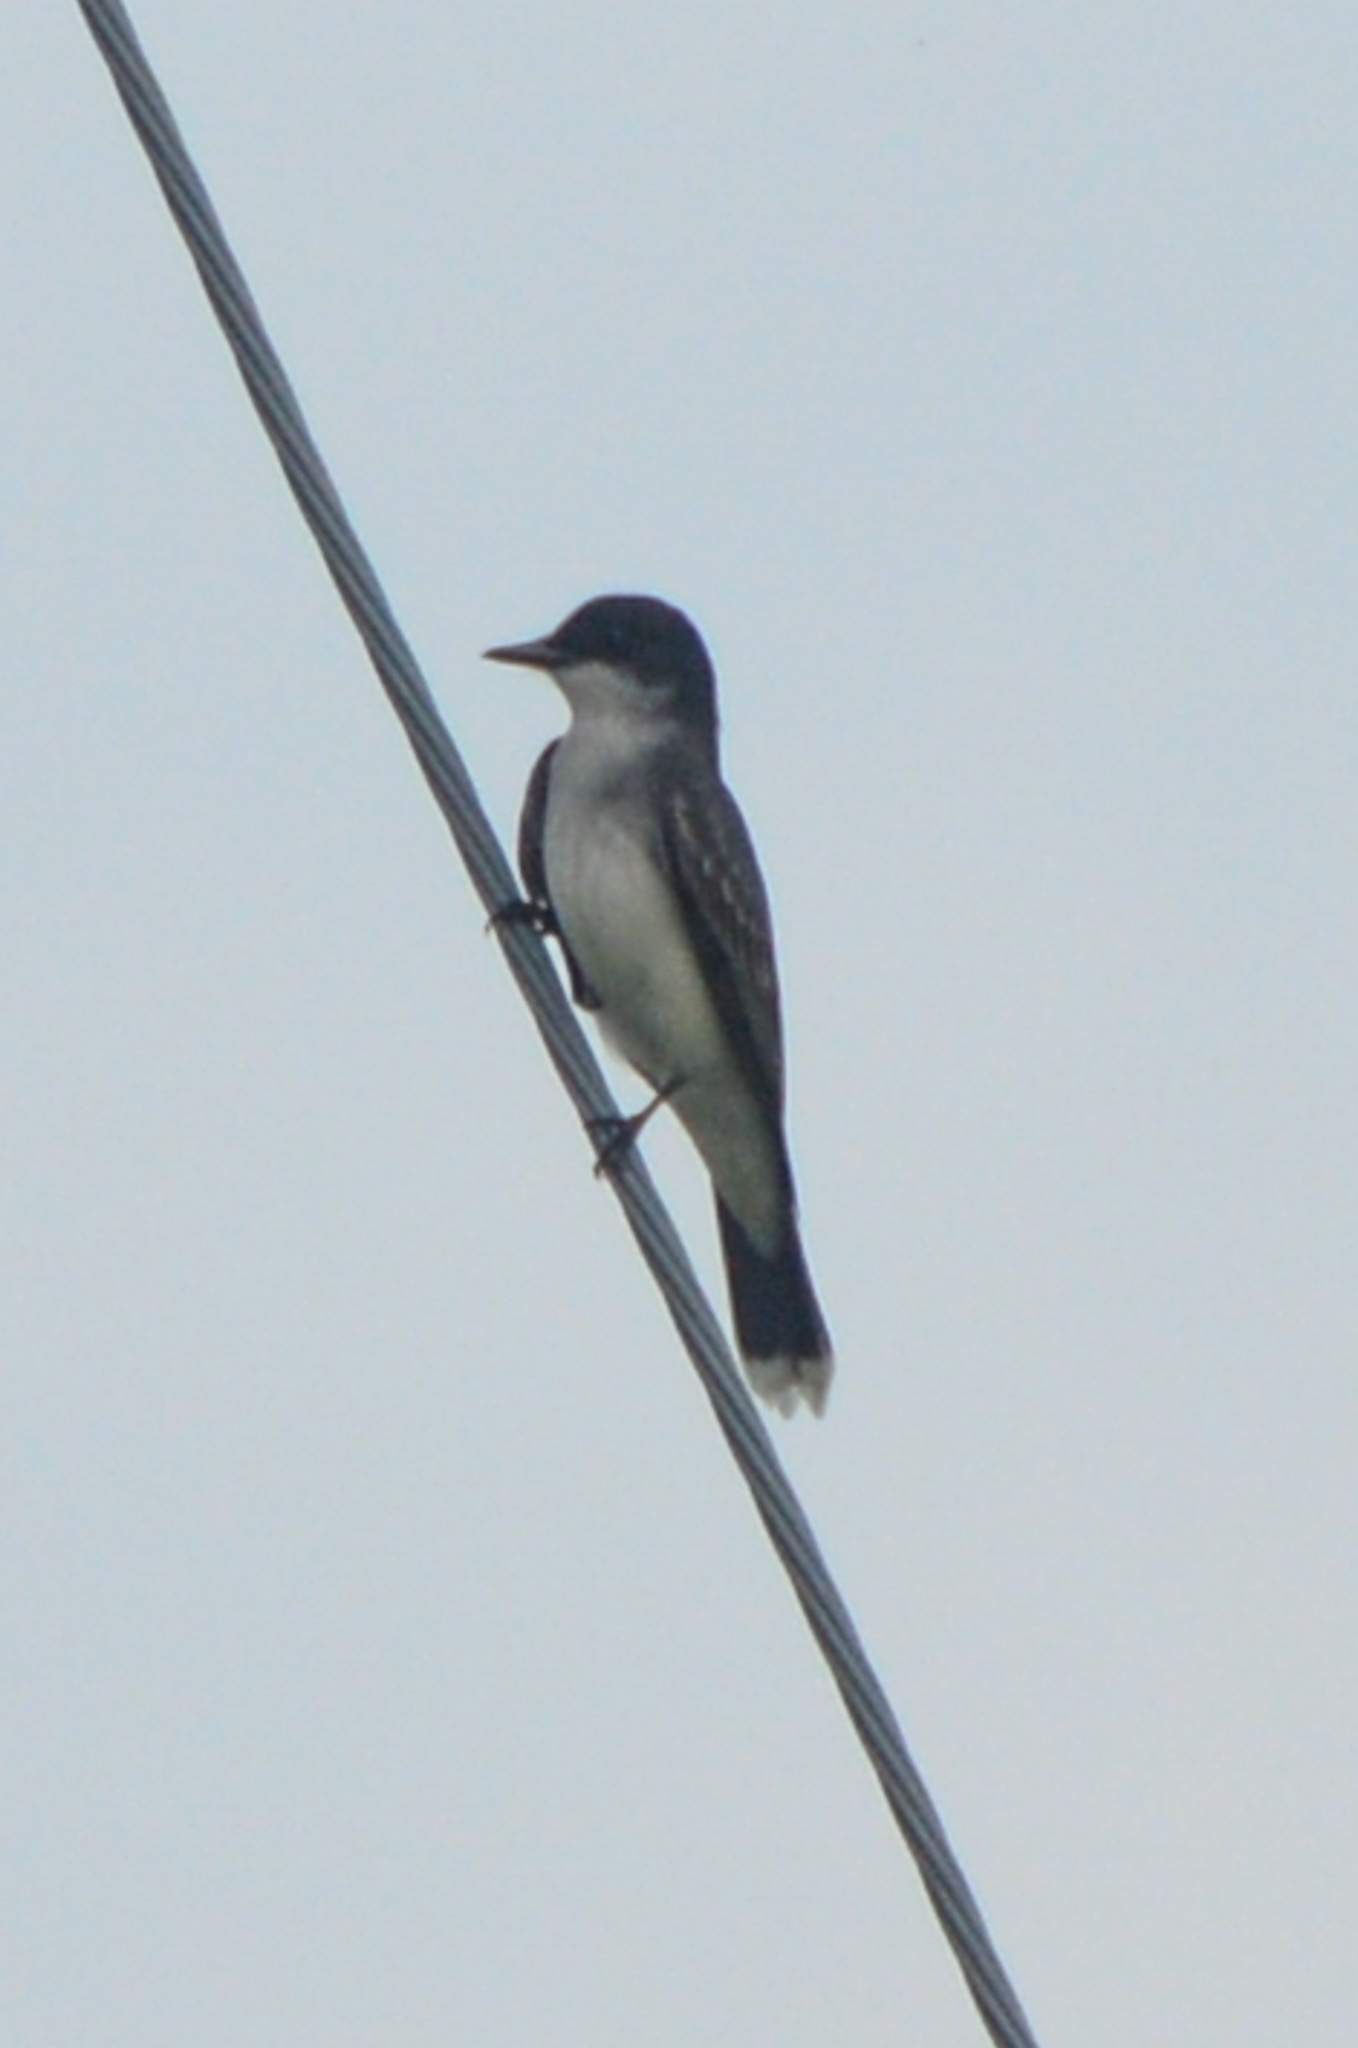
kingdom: Animalia
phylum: Chordata
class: Aves
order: Passeriformes
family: Tyrannidae
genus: Tyrannus
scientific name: Tyrannus tyrannus
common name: Eastern kingbird
